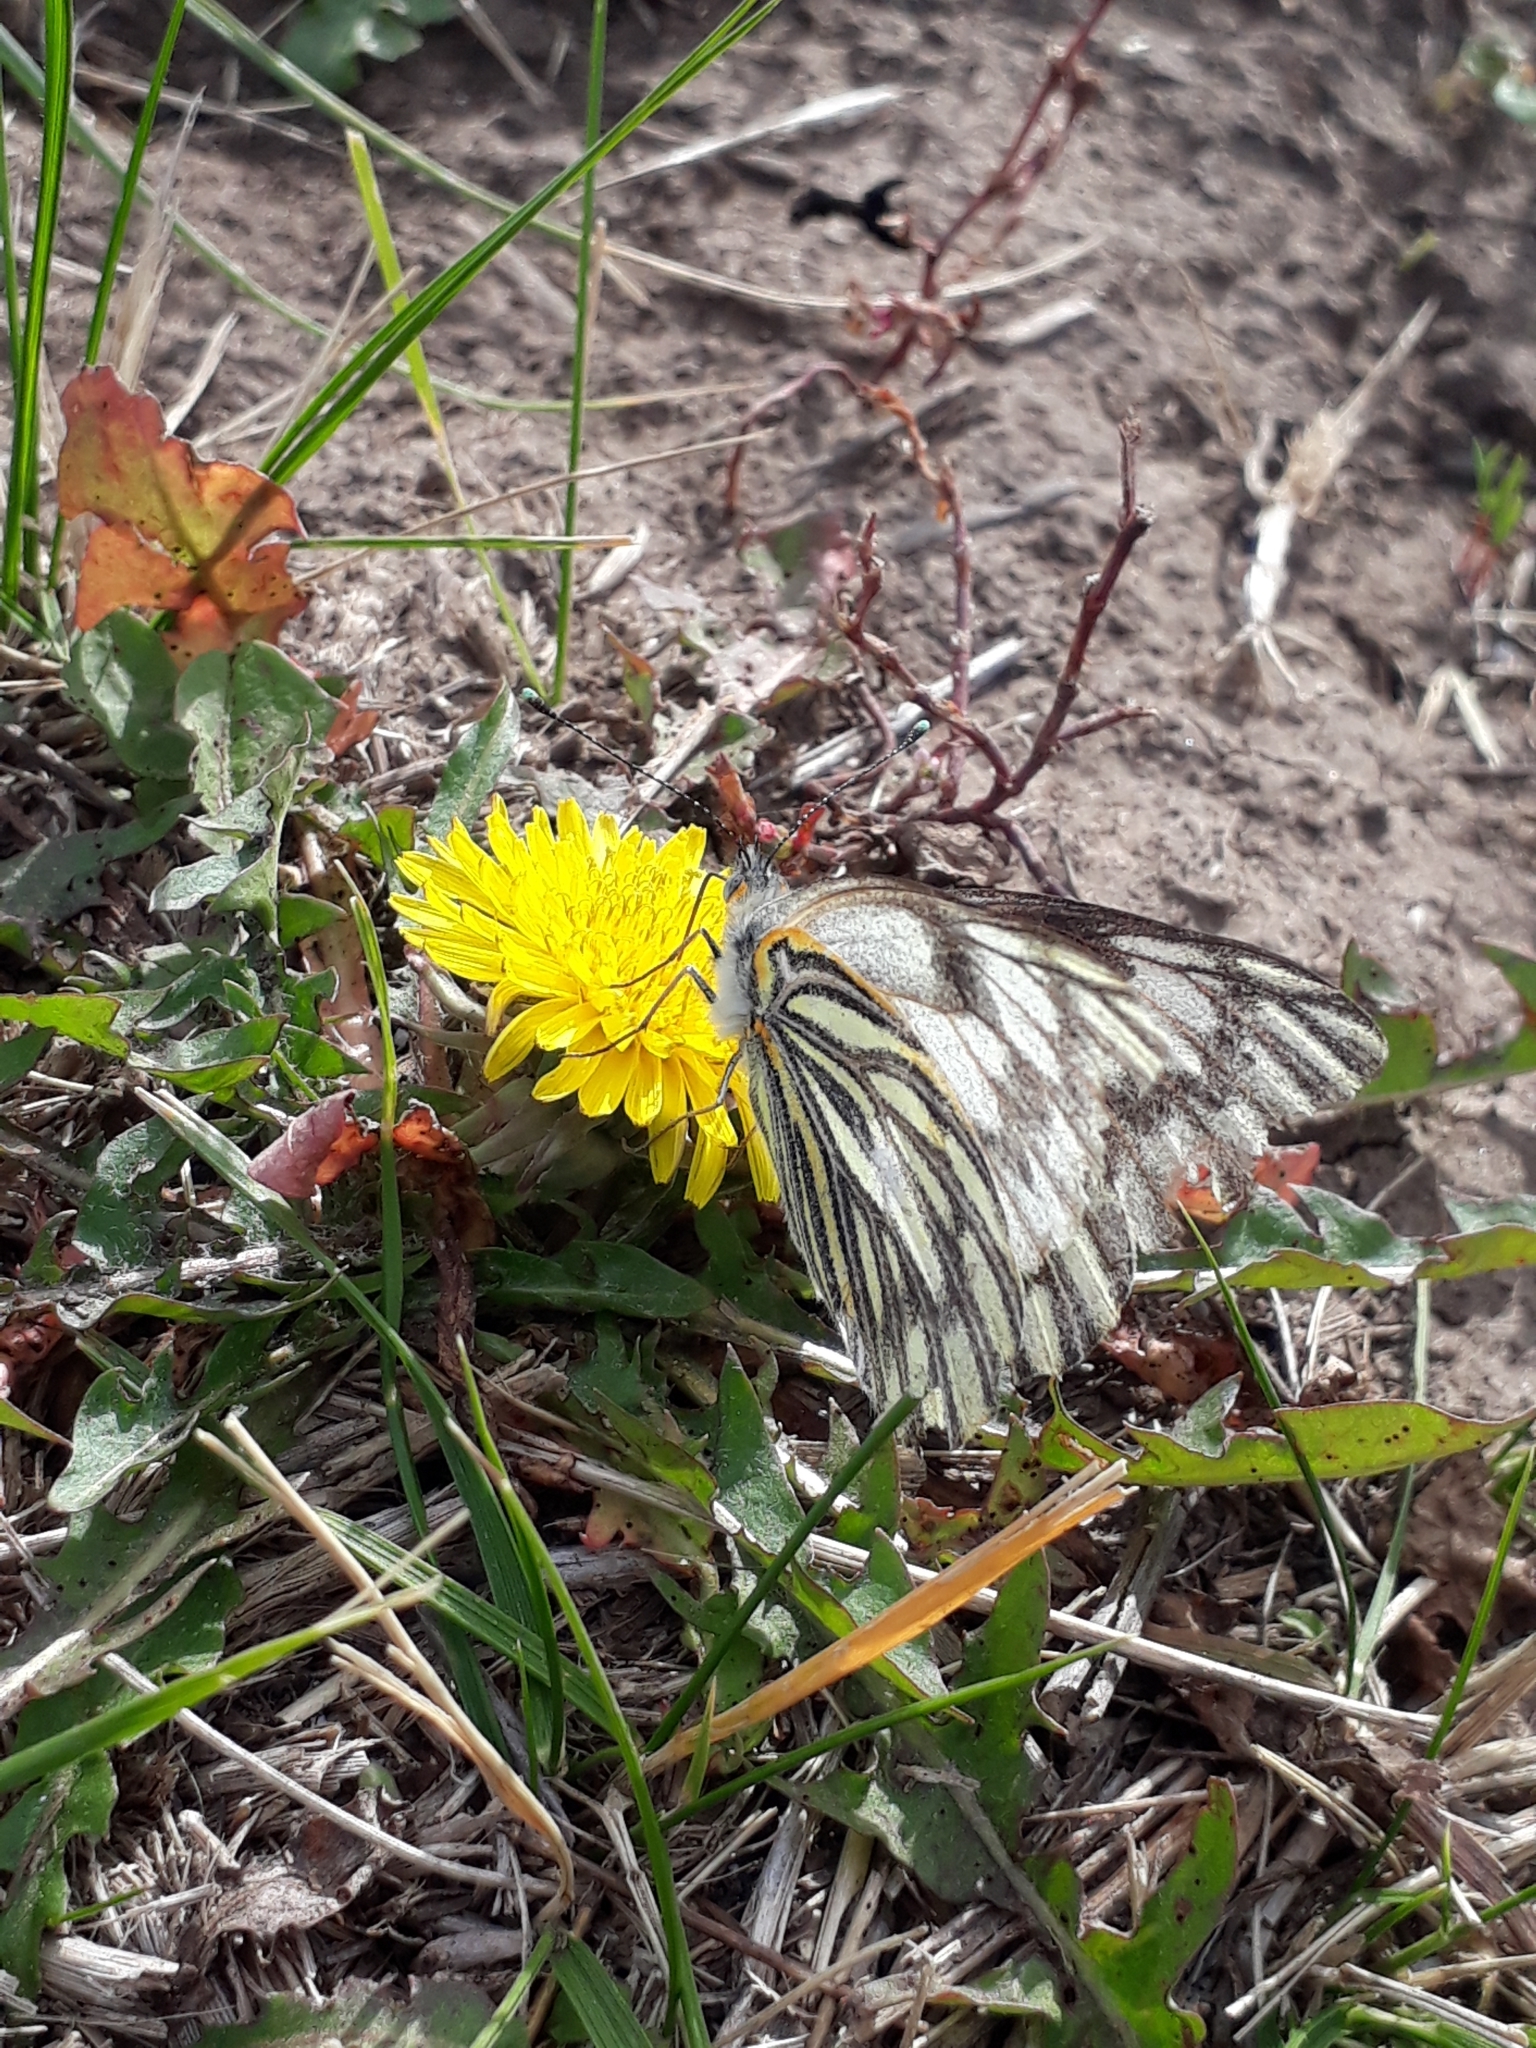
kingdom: Animalia
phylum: Arthropoda
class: Insecta
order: Lepidoptera
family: Pieridae
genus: Tatochila
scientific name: Tatochila mercedis
